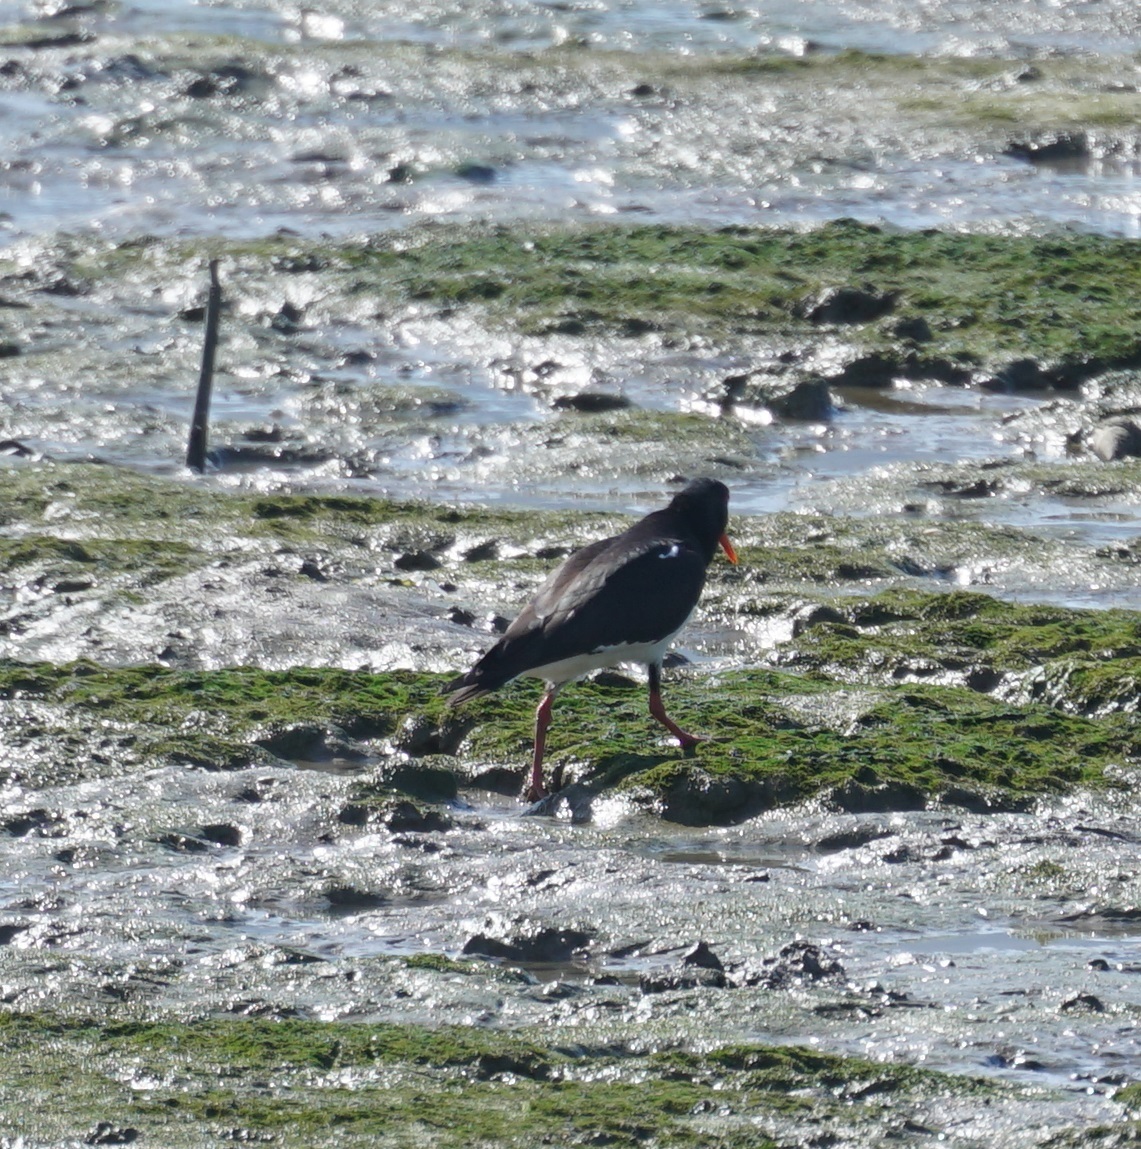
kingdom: Animalia
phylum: Chordata
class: Aves
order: Charadriiformes
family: Haematopodidae
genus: Haematopus
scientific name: Haematopus longirostris
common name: Pied oystercatcher
